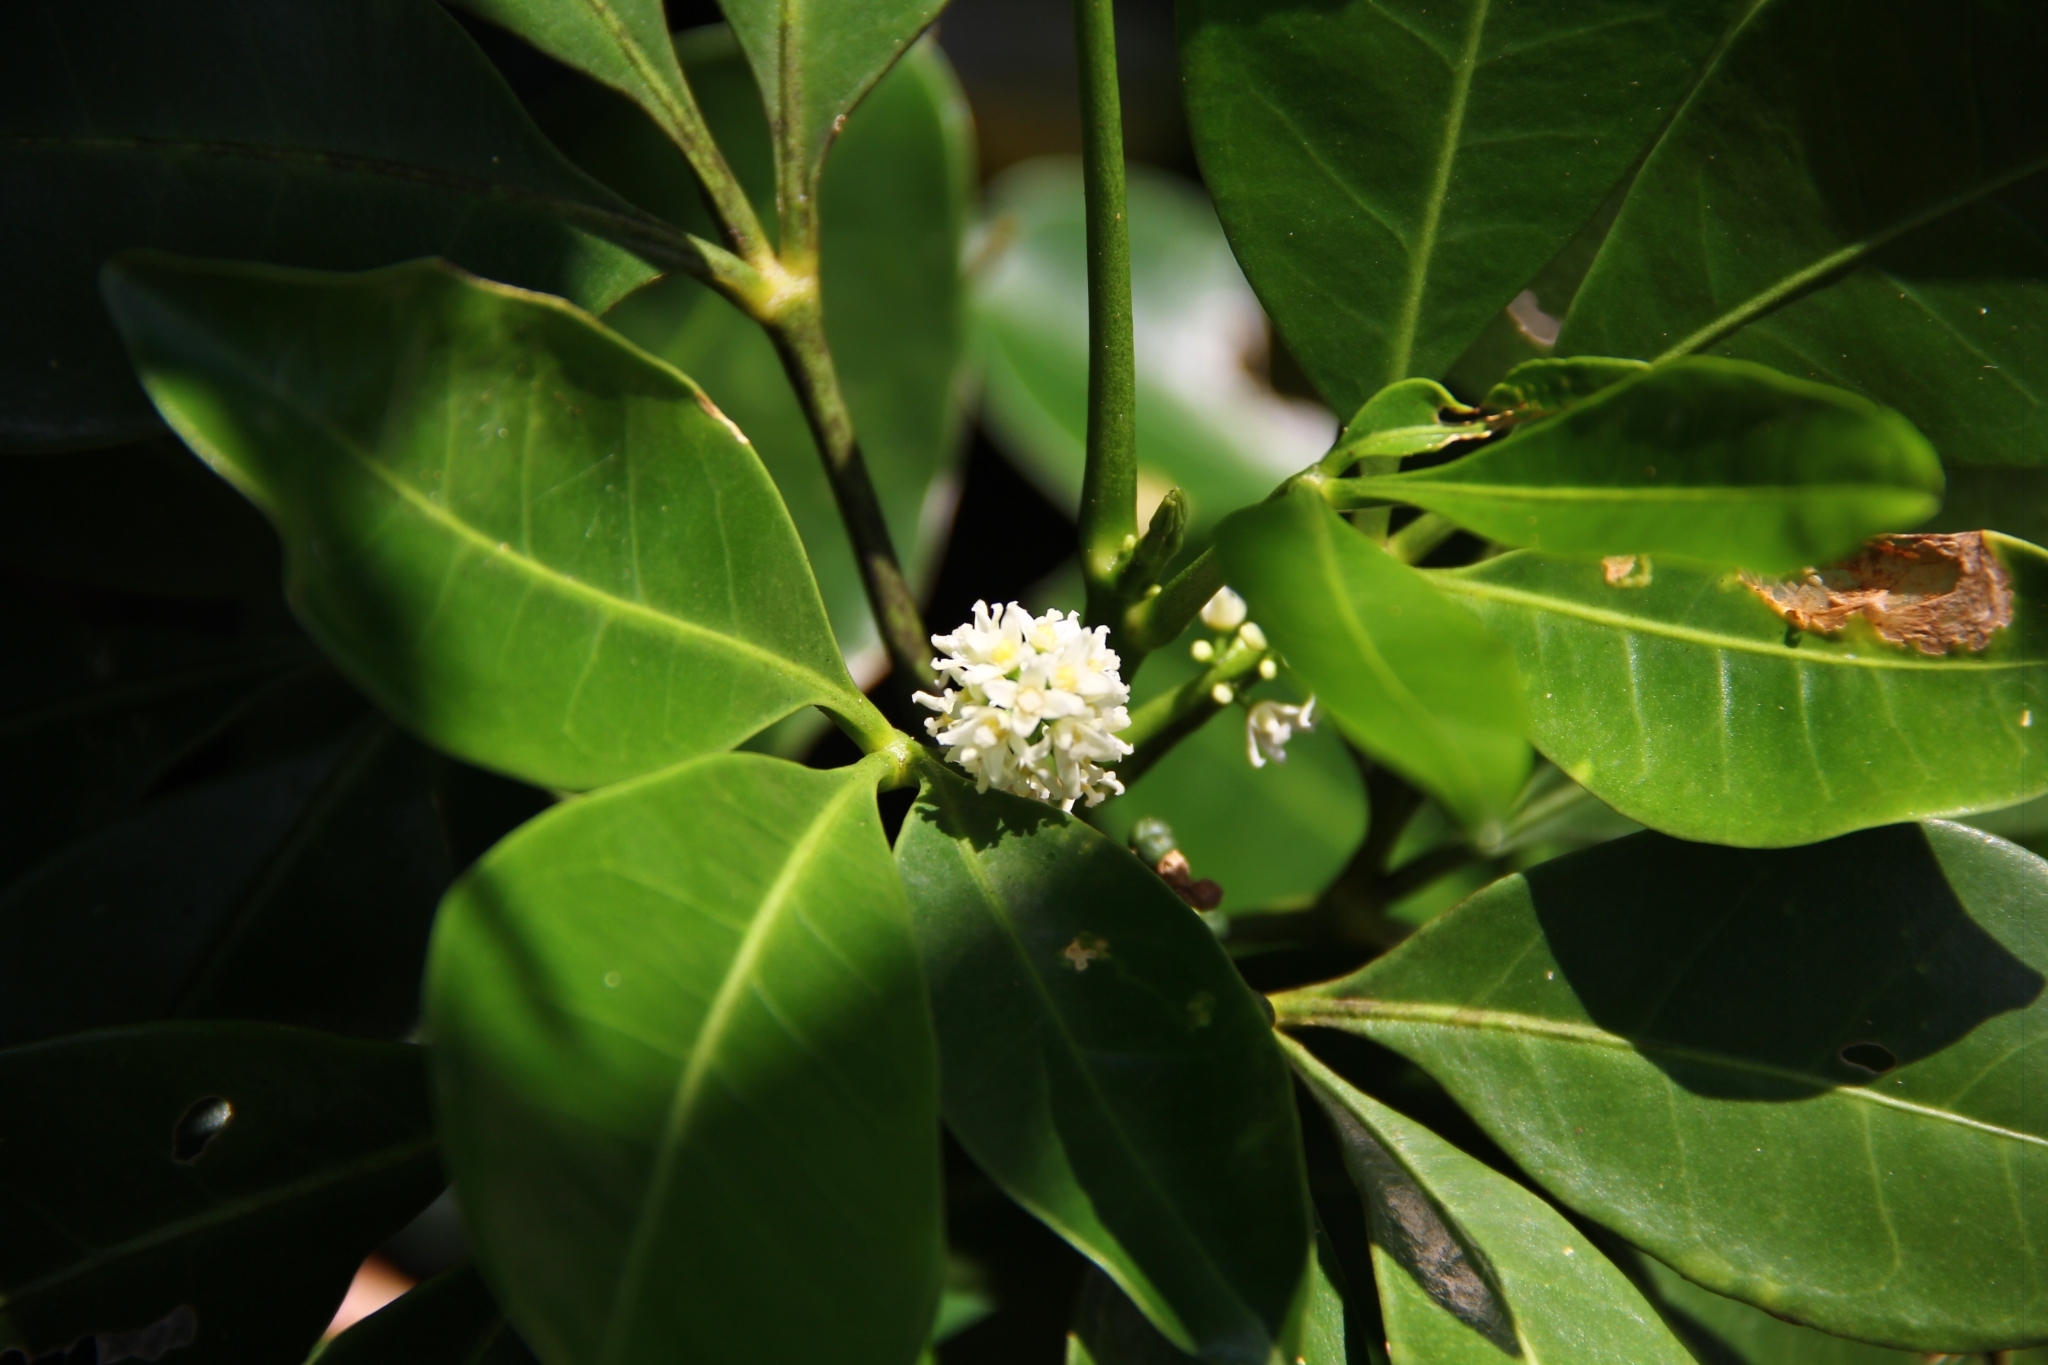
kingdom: Plantae
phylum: Tracheophyta
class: Magnoliopsida
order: Sapindales
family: Rutaceae
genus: Melicope
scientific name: Melicope triphylla
